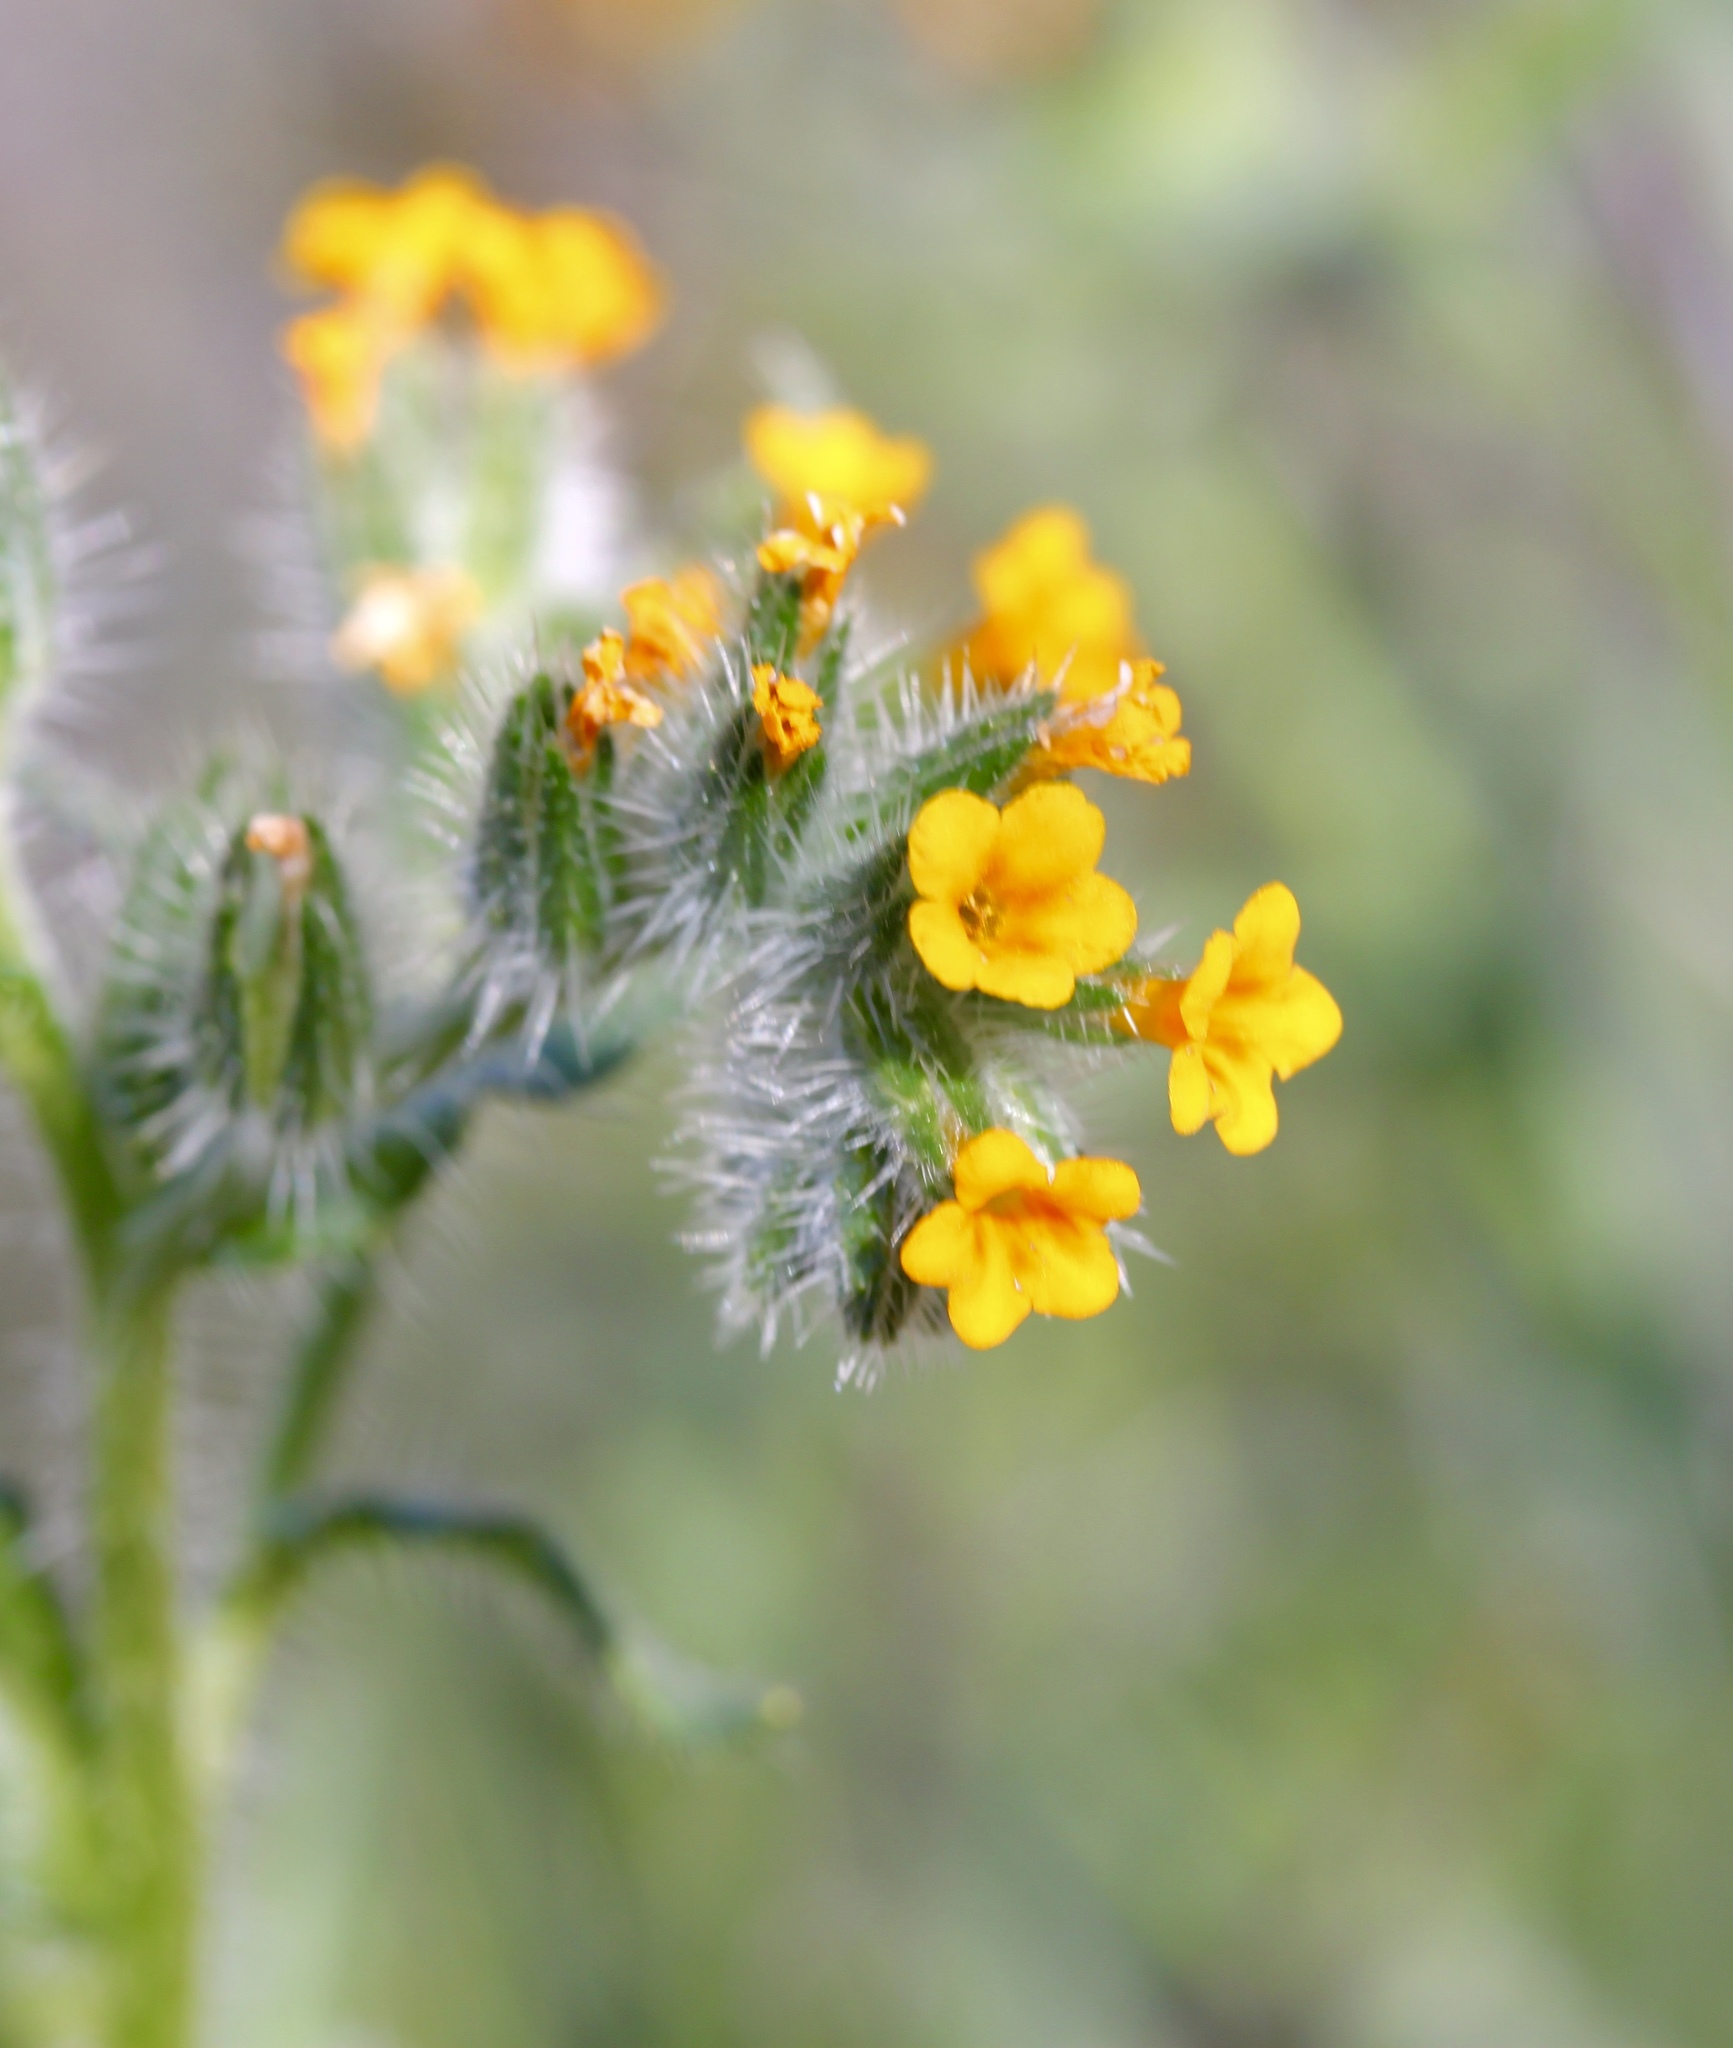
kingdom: Plantae
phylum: Tracheophyta
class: Magnoliopsida
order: Boraginales
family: Boraginaceae
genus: Amsinckia
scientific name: Amsinckia menziesii
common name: Menzies' fiddleneck
